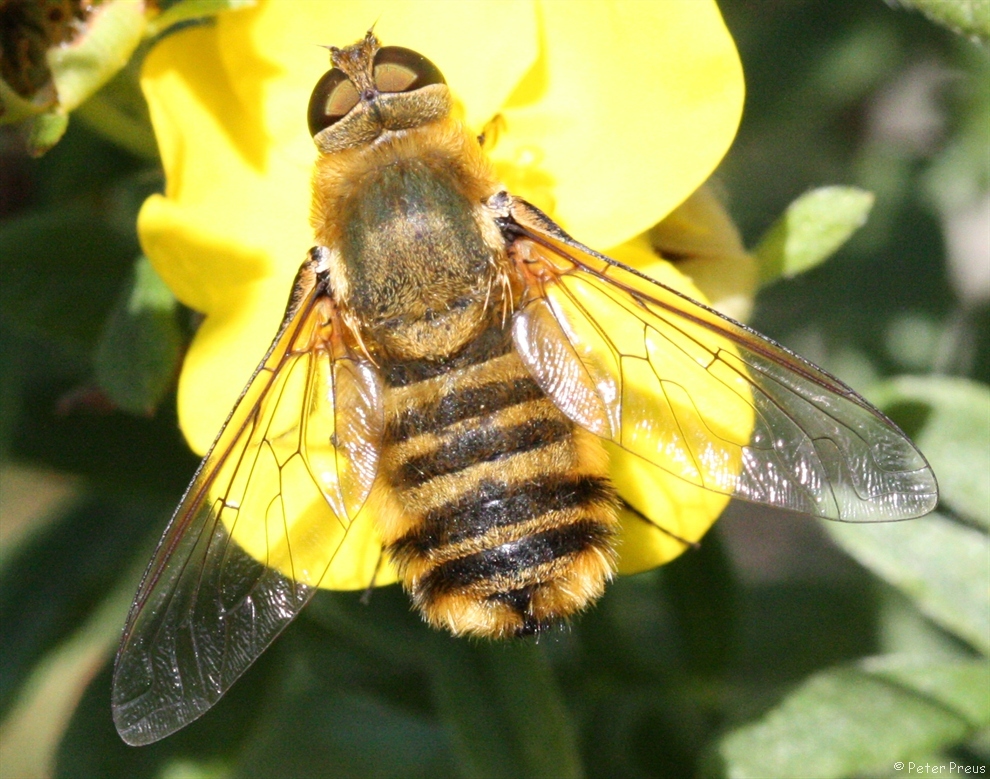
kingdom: Animalia
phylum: Arthropoda
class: Insecta
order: Diptera
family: Bombyliidae
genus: Villa
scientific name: Villa hottentotta
